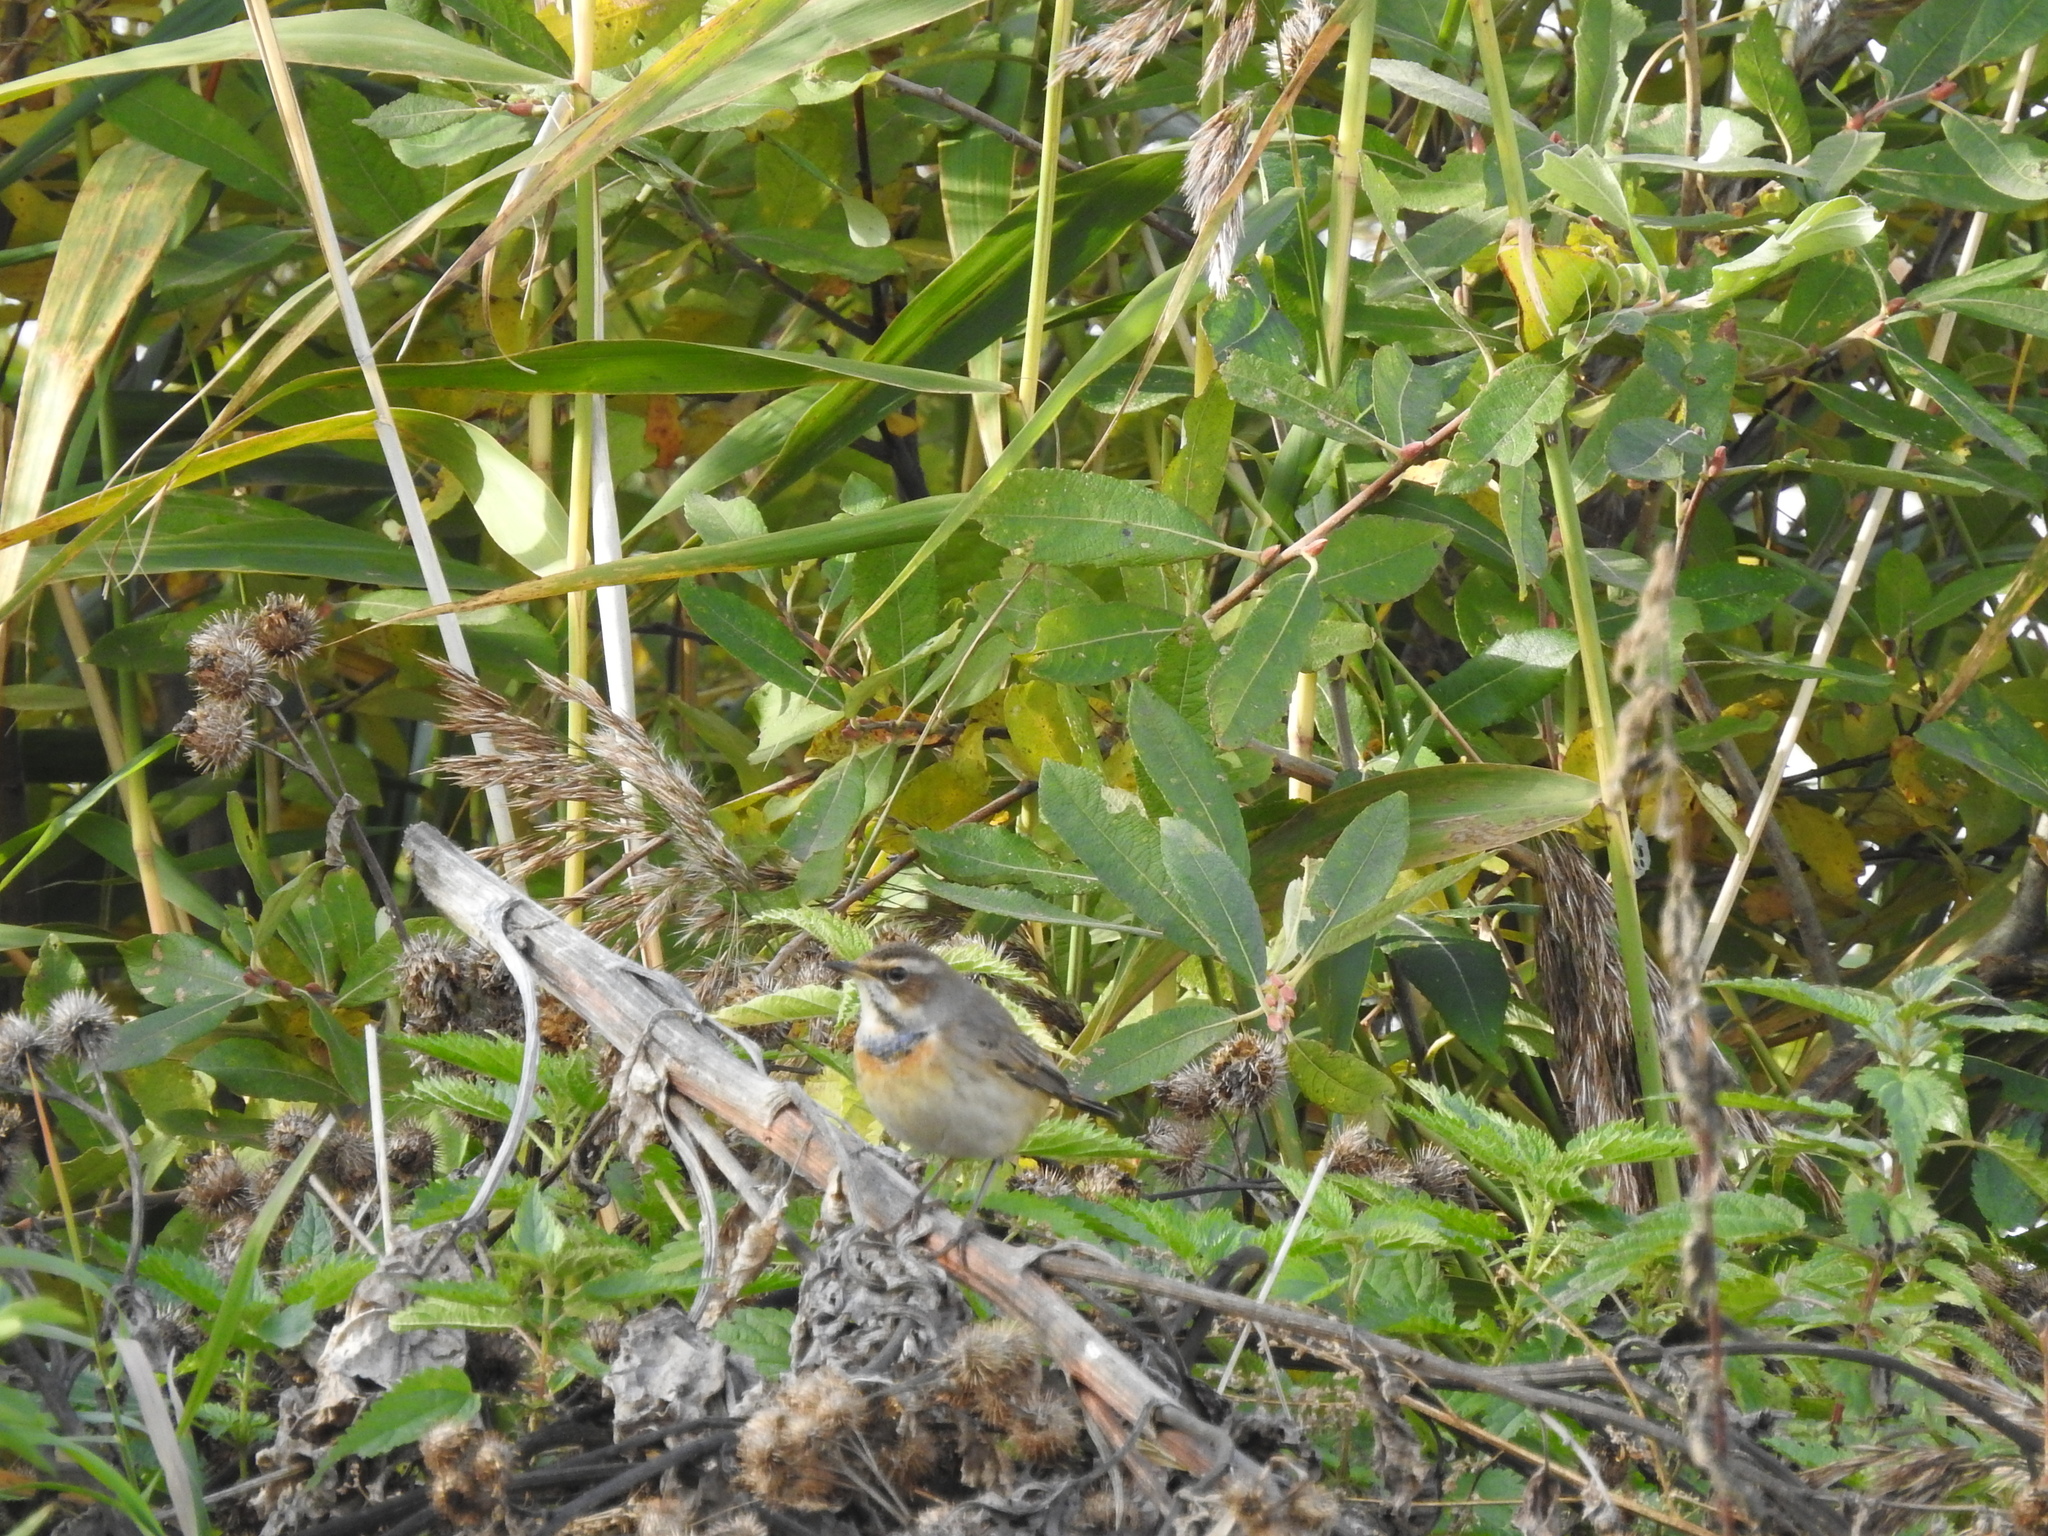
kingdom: Animalia
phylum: Chordata
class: Aves
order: Passeriformes
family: Muscicapidae
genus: Luscinia
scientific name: Luscinia svecica
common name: Bluethroat
